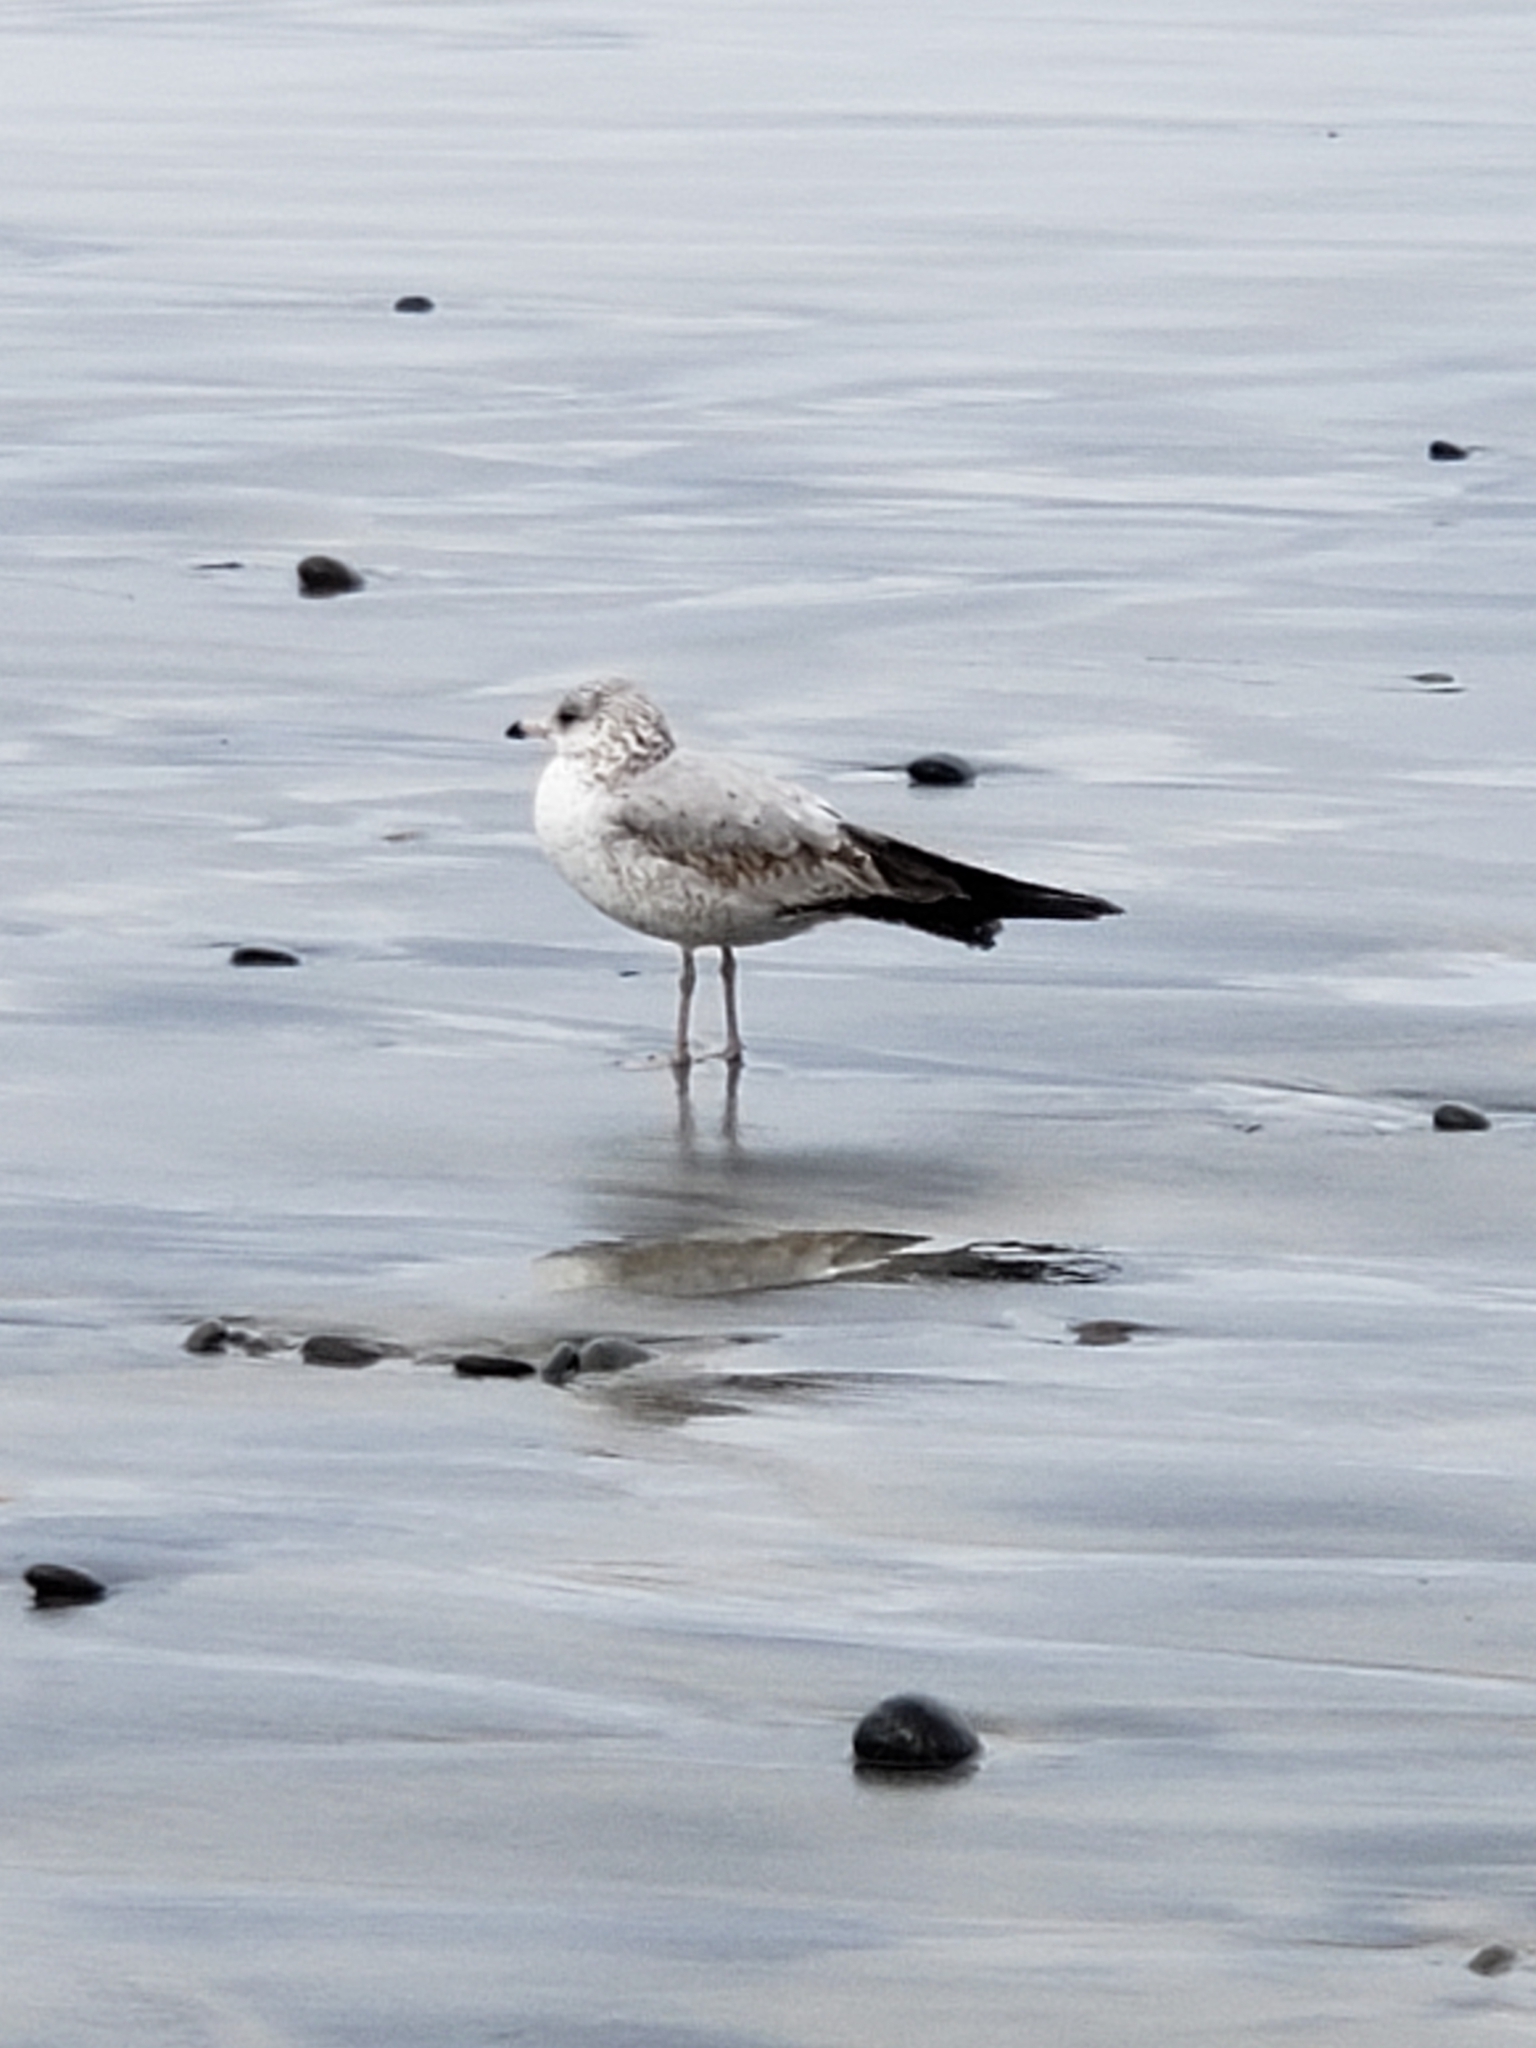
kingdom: Animalia
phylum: Chordata
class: Aves
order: Charadriiformes
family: Laridae
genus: Larus
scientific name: Larus delawarensis
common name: Ring-billed gull
